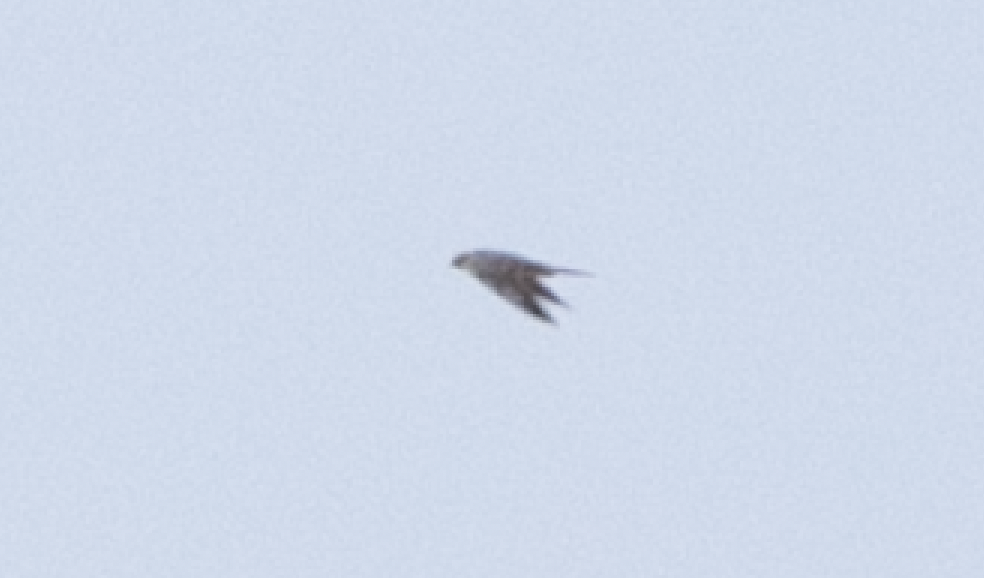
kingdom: Animalia
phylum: Chordata
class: Aves
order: Falconiformes
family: Falconidae
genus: Falco
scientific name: Falco subbuteo
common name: Eurasian hobby
